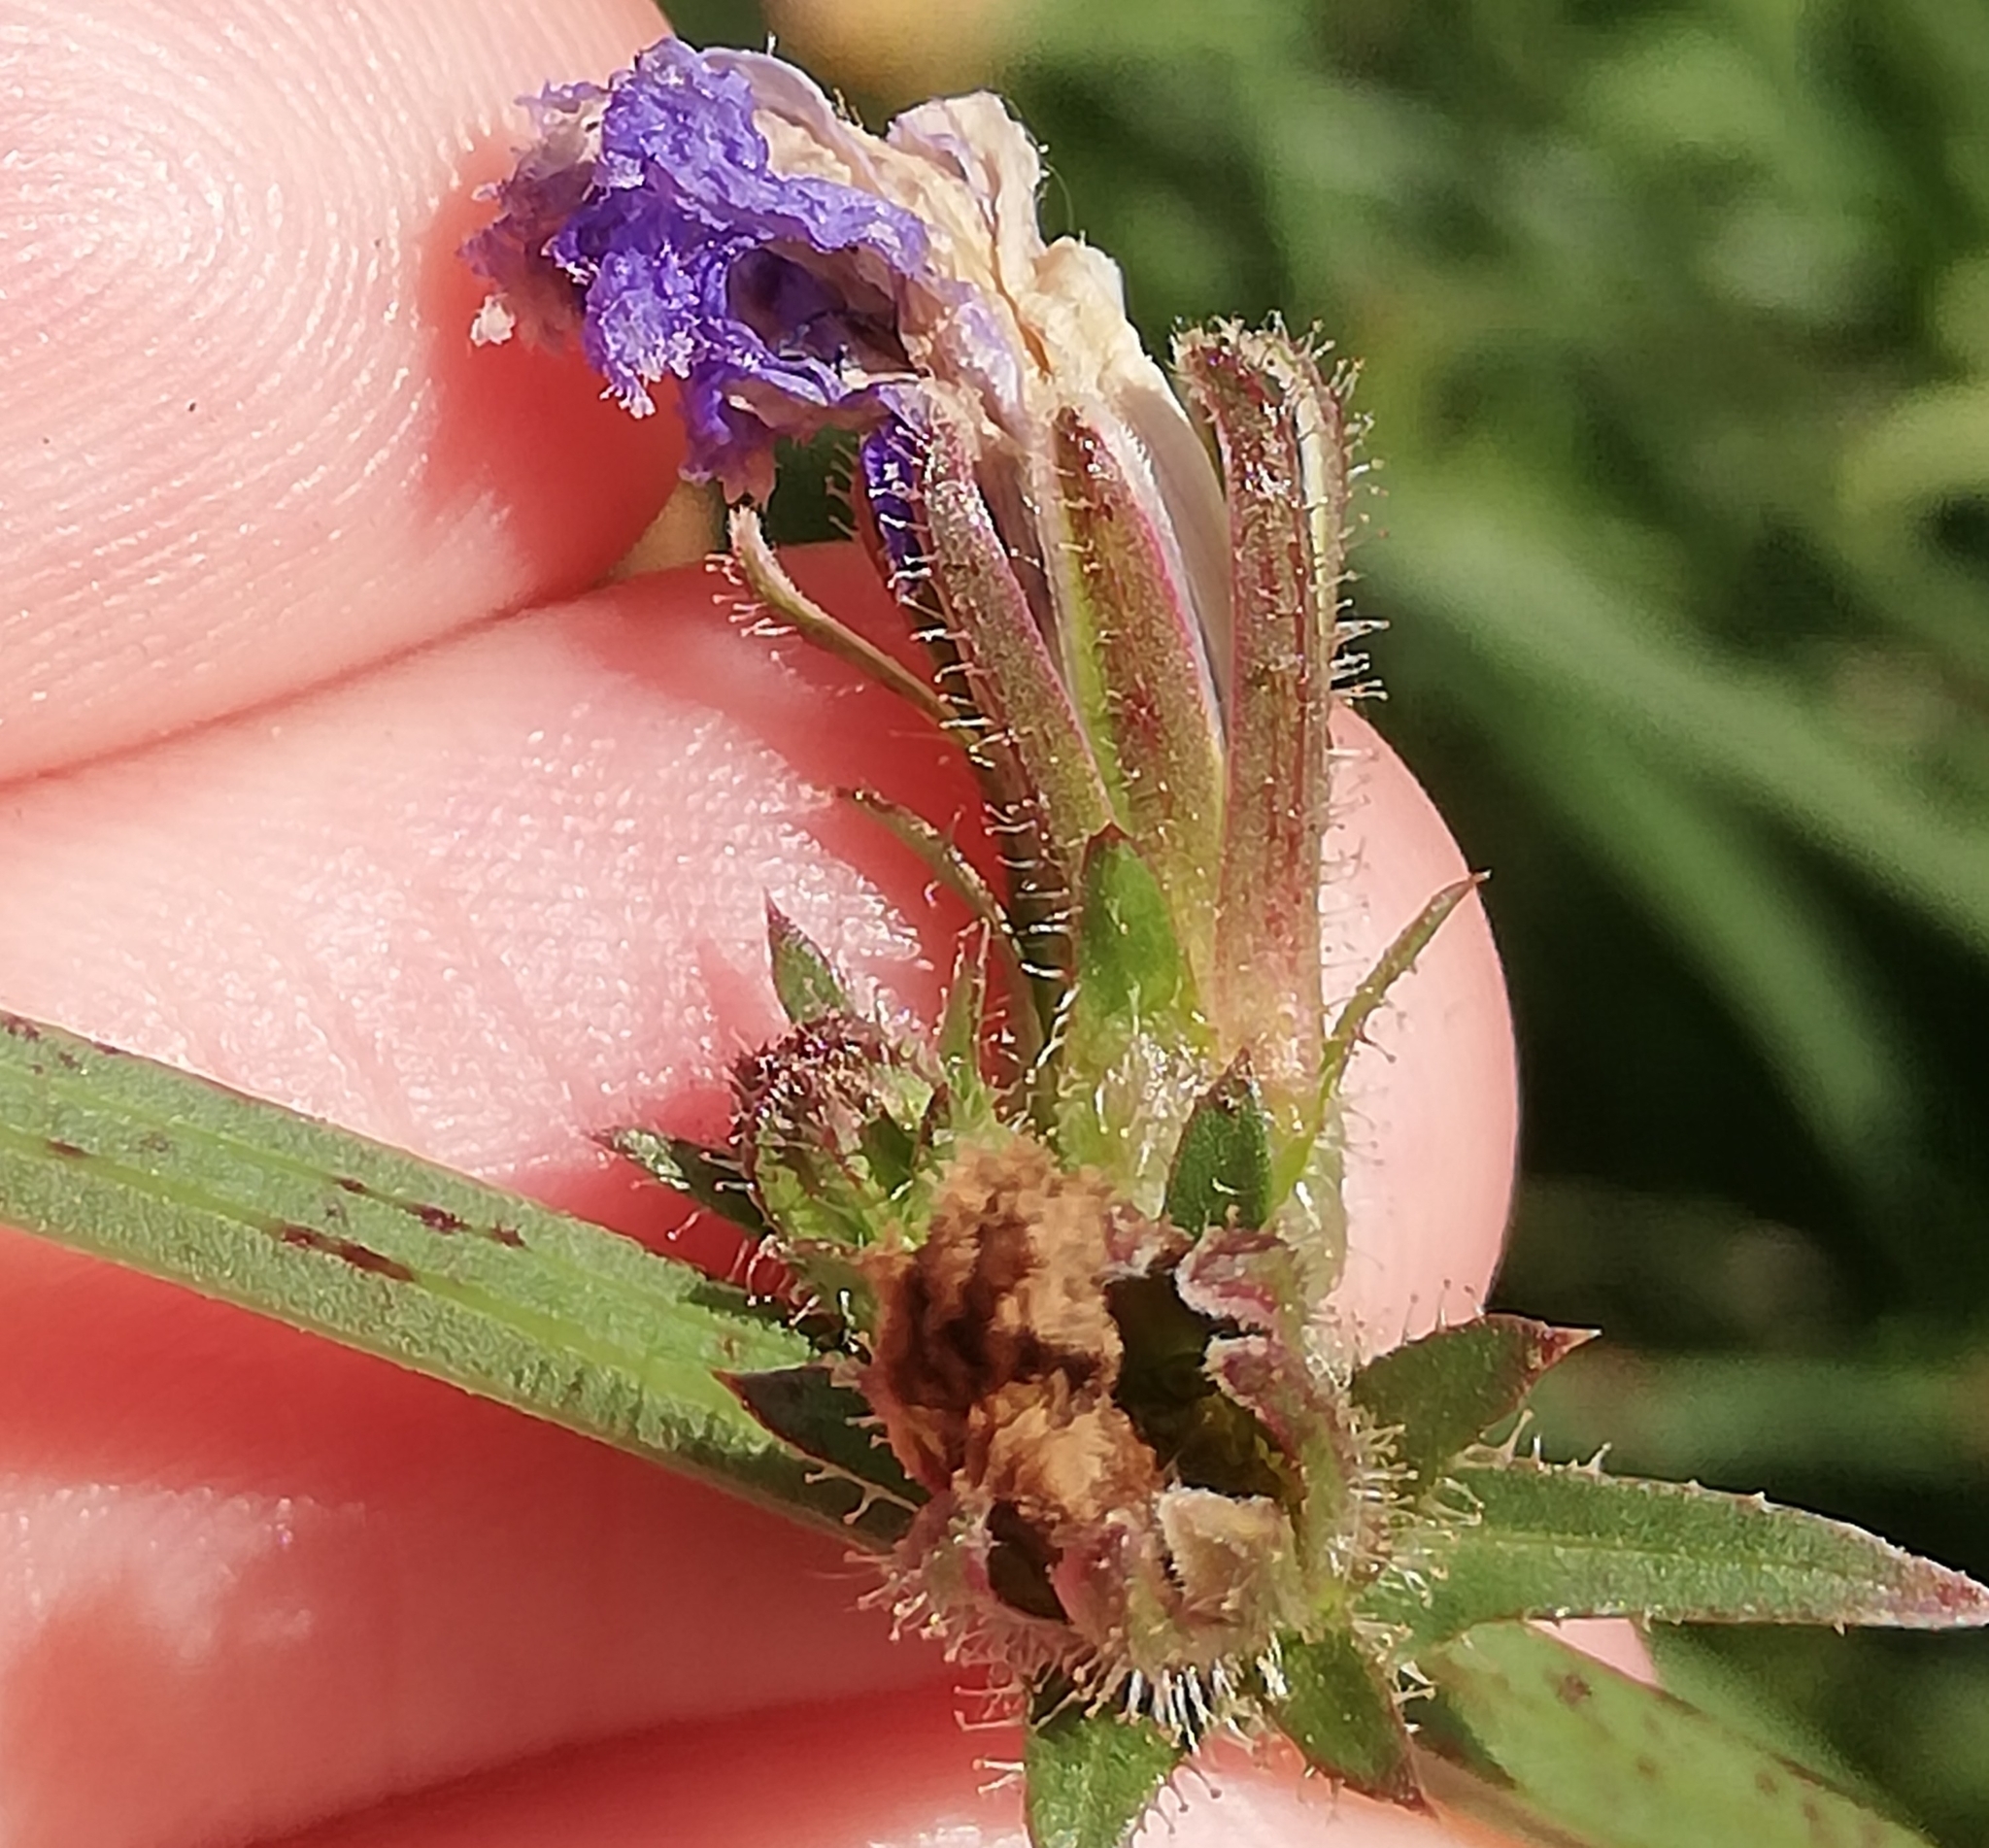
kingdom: Plantae
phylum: Tracheophyta
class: Magnoliopsida
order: Asterales
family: Asteraceae
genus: Cichorium
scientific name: Cichorium intybus
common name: Chicory
